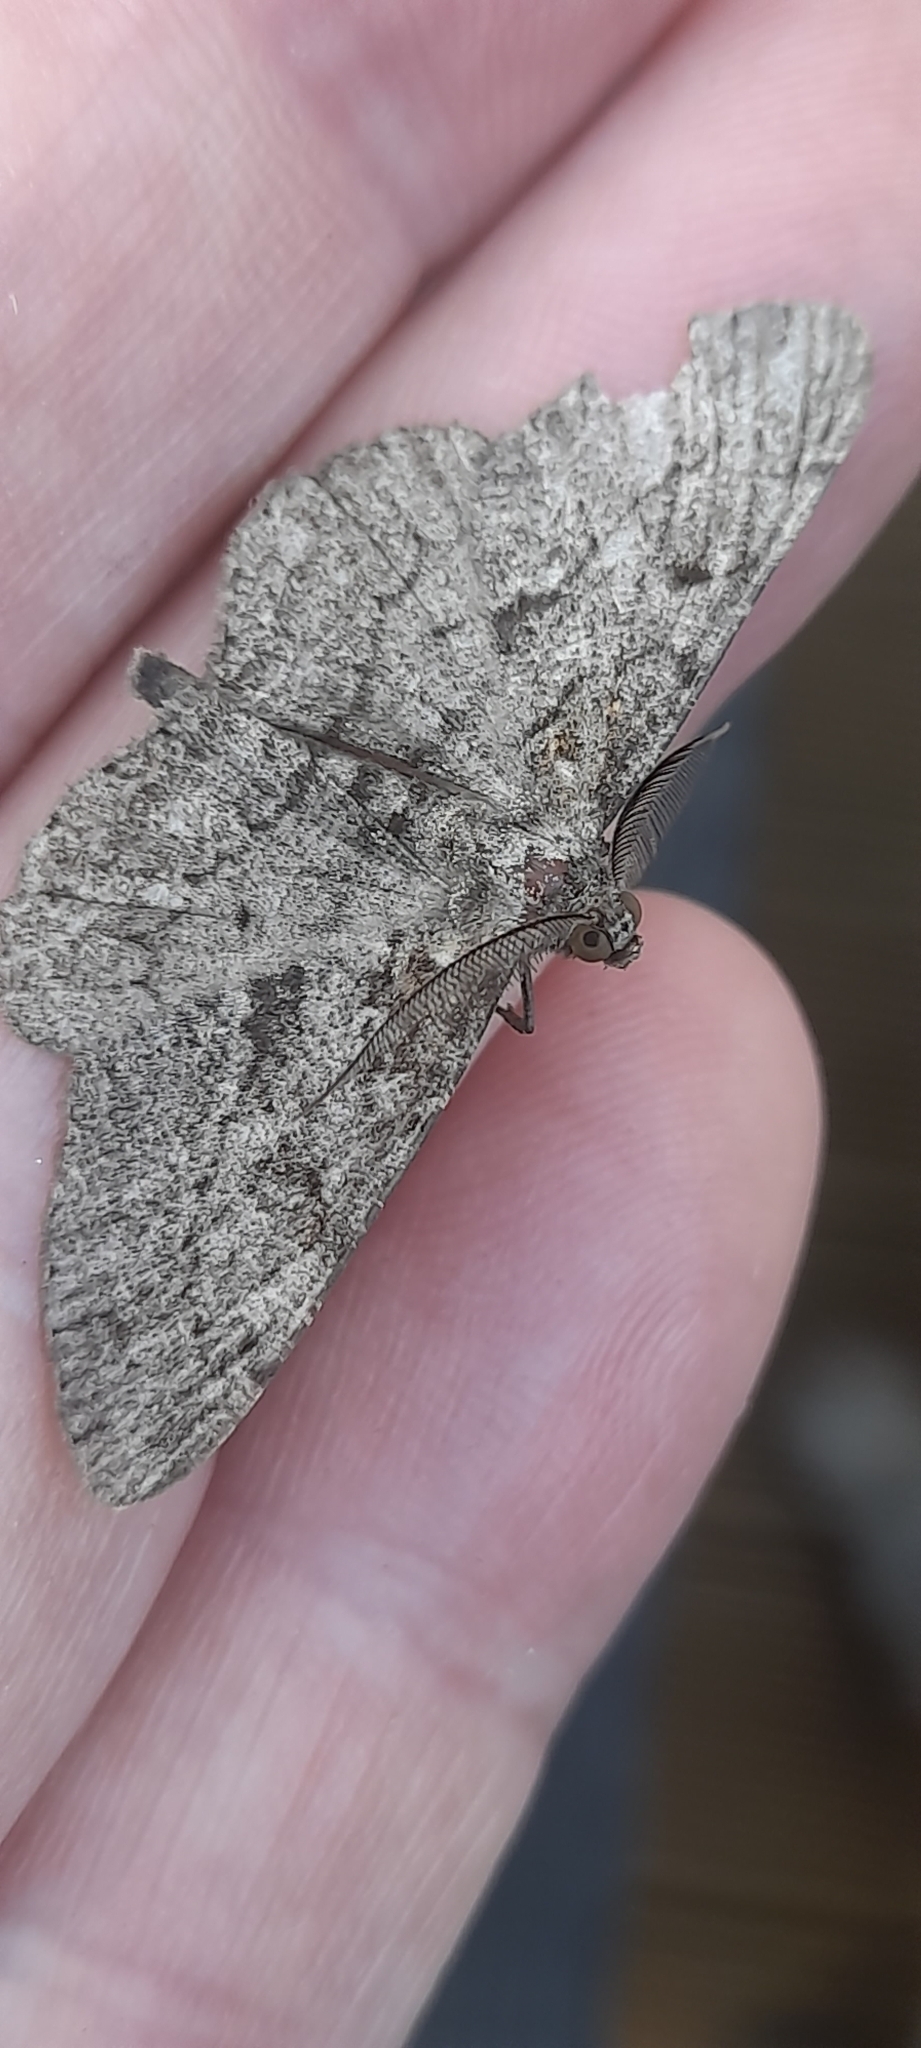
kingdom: Animalia
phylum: Arthropoda
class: Insecta
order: Lepidoptera
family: Geometridae
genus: Peribatodes
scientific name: Peribatodes rhomboidaria
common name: Willow beauty
